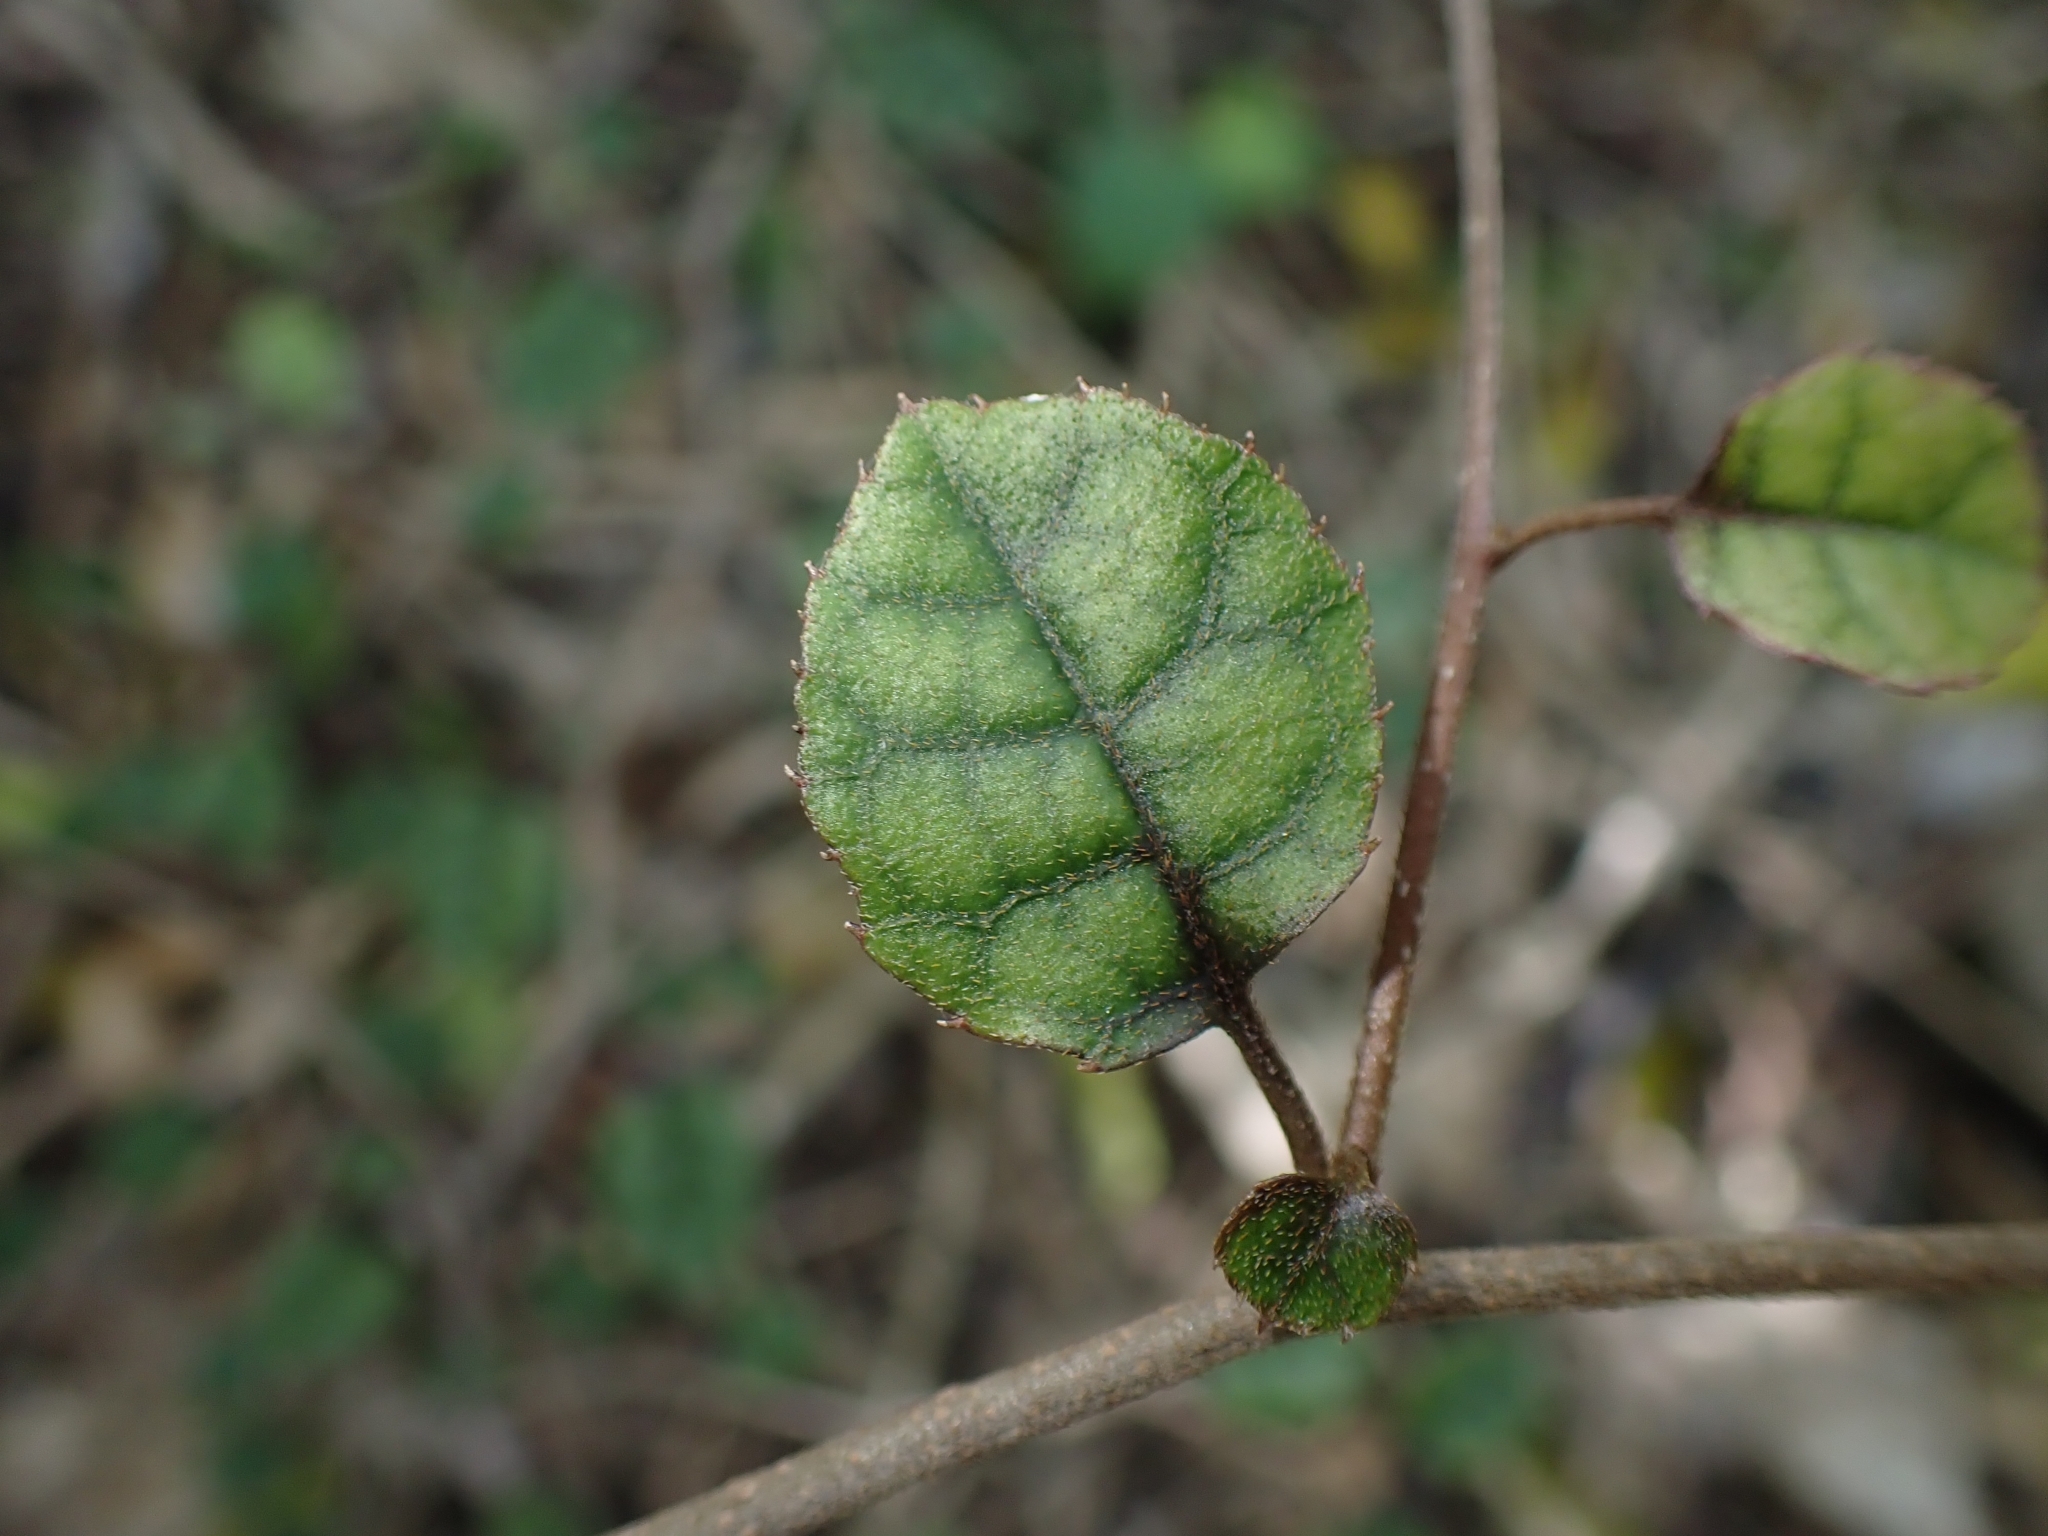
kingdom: Plantae
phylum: Tracheophyta
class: Magnoliopsida
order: Asterales
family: Rousseaceae
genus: Carpodetus
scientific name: Carpodetus serratus
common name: White mapau
